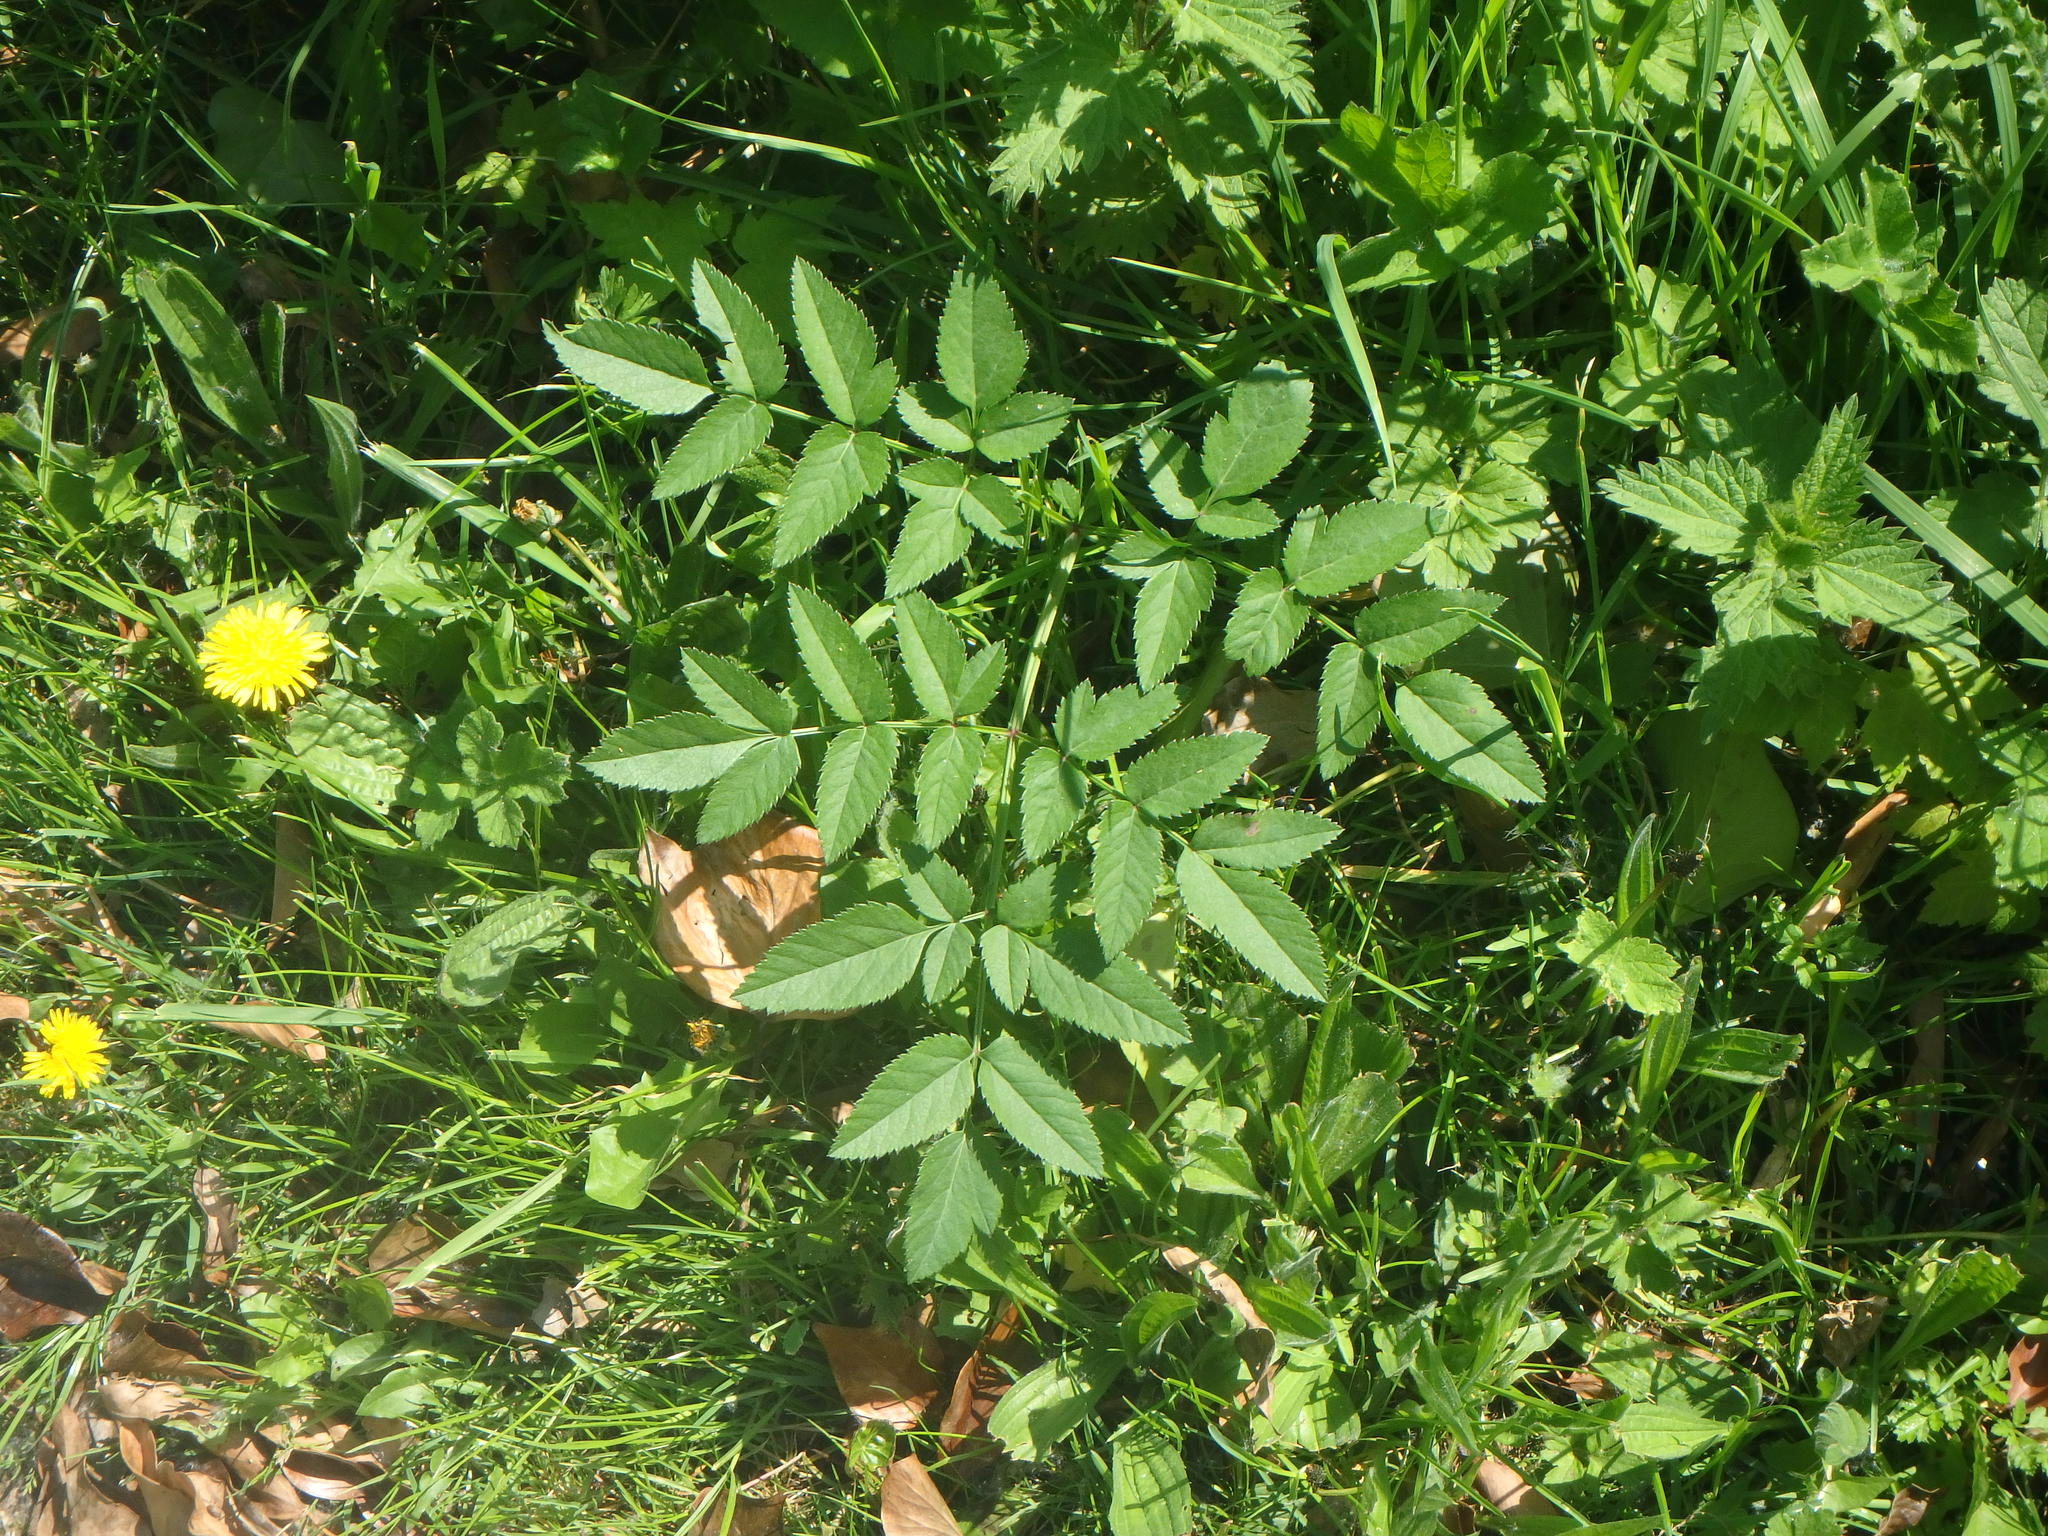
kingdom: Plantae
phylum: Tracheophyta
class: Magnoliopsida
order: Apiales
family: Apiaceae
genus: Angelica
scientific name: Angelica sylvestris
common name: Wild angelica
